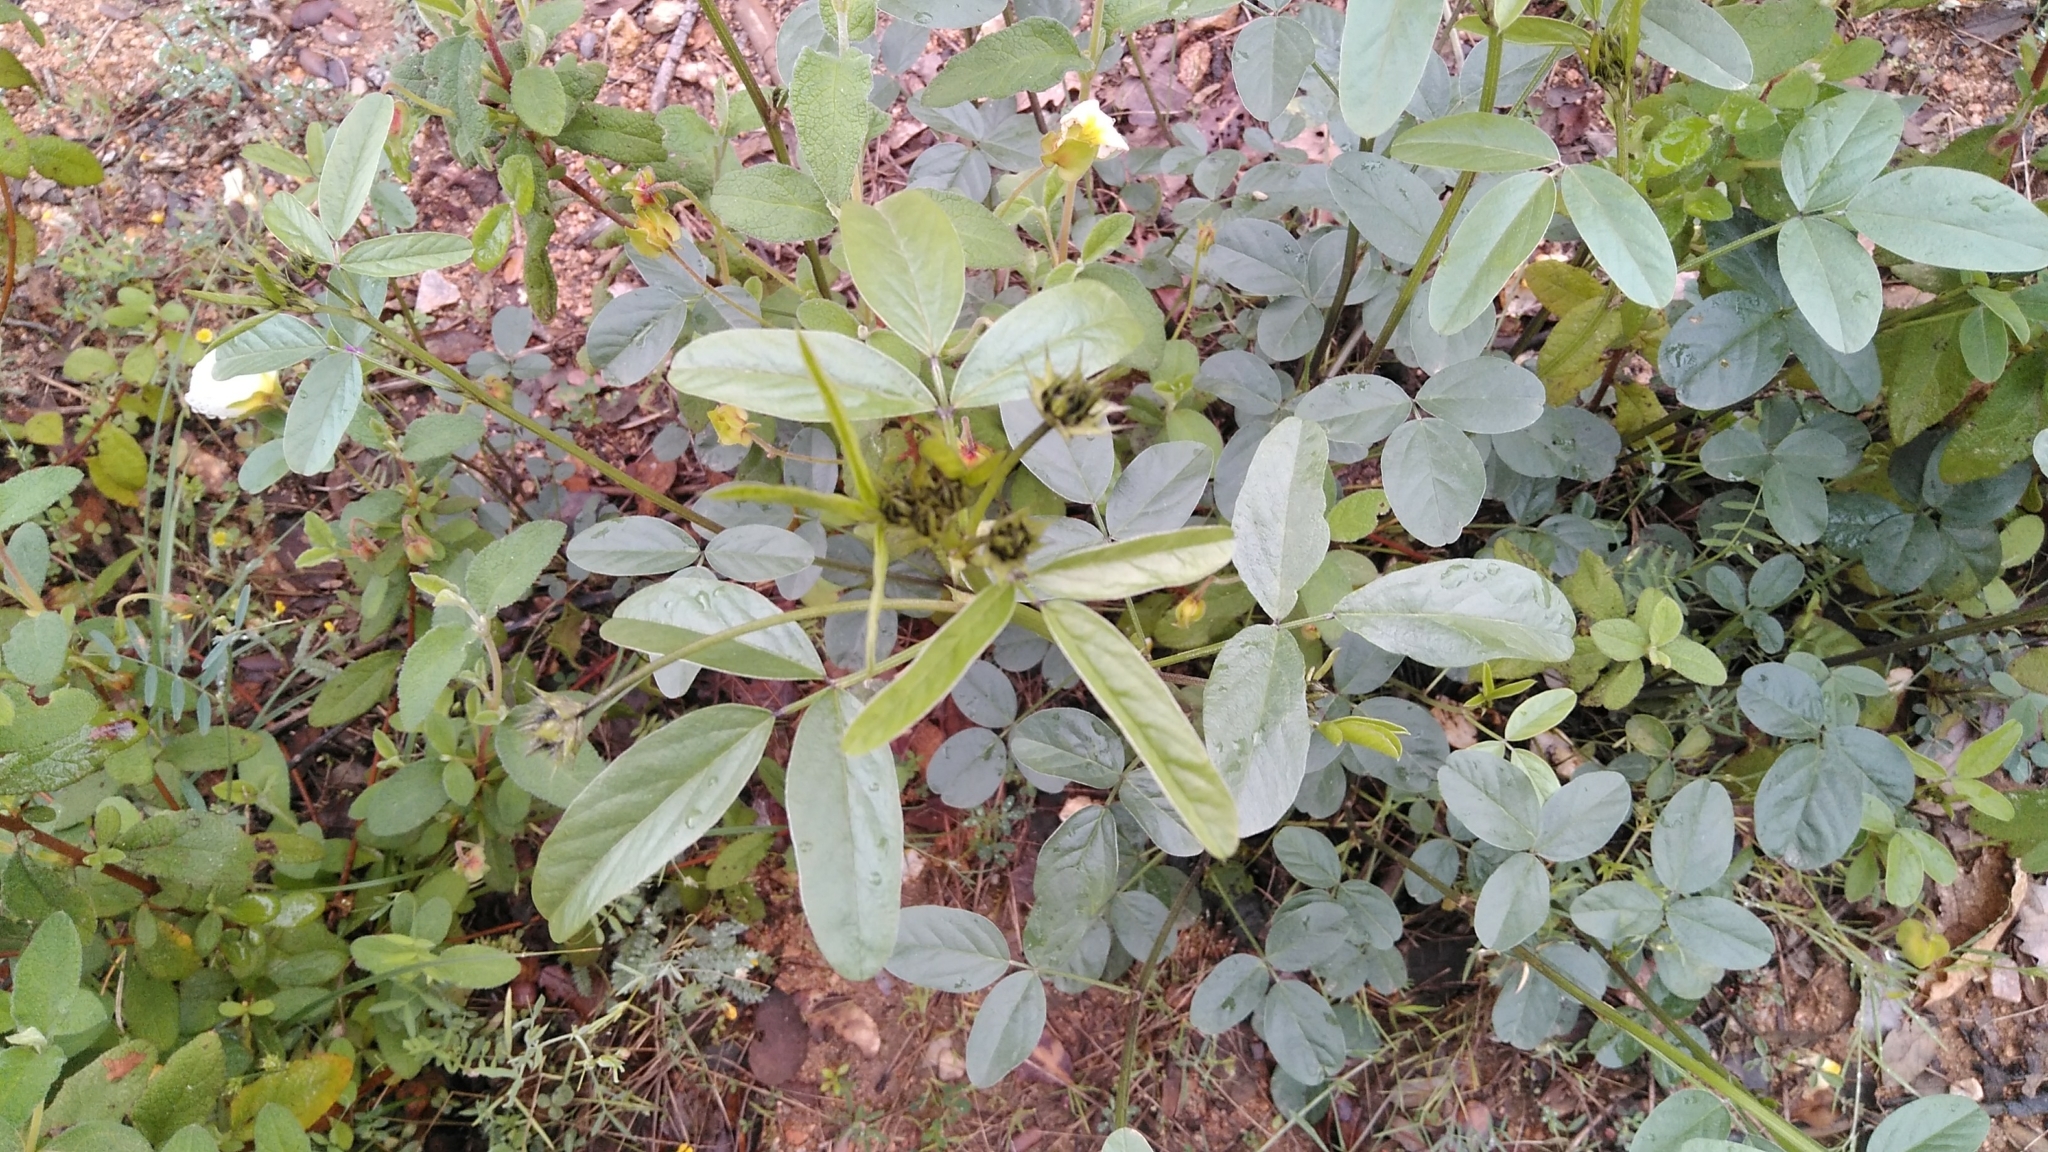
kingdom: Plantae
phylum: Tracheophyta
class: Magnoliopsida
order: Fabales
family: Fabaceae
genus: Bituminaria
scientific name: Bituminaria bituminosa
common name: Arabian pea
